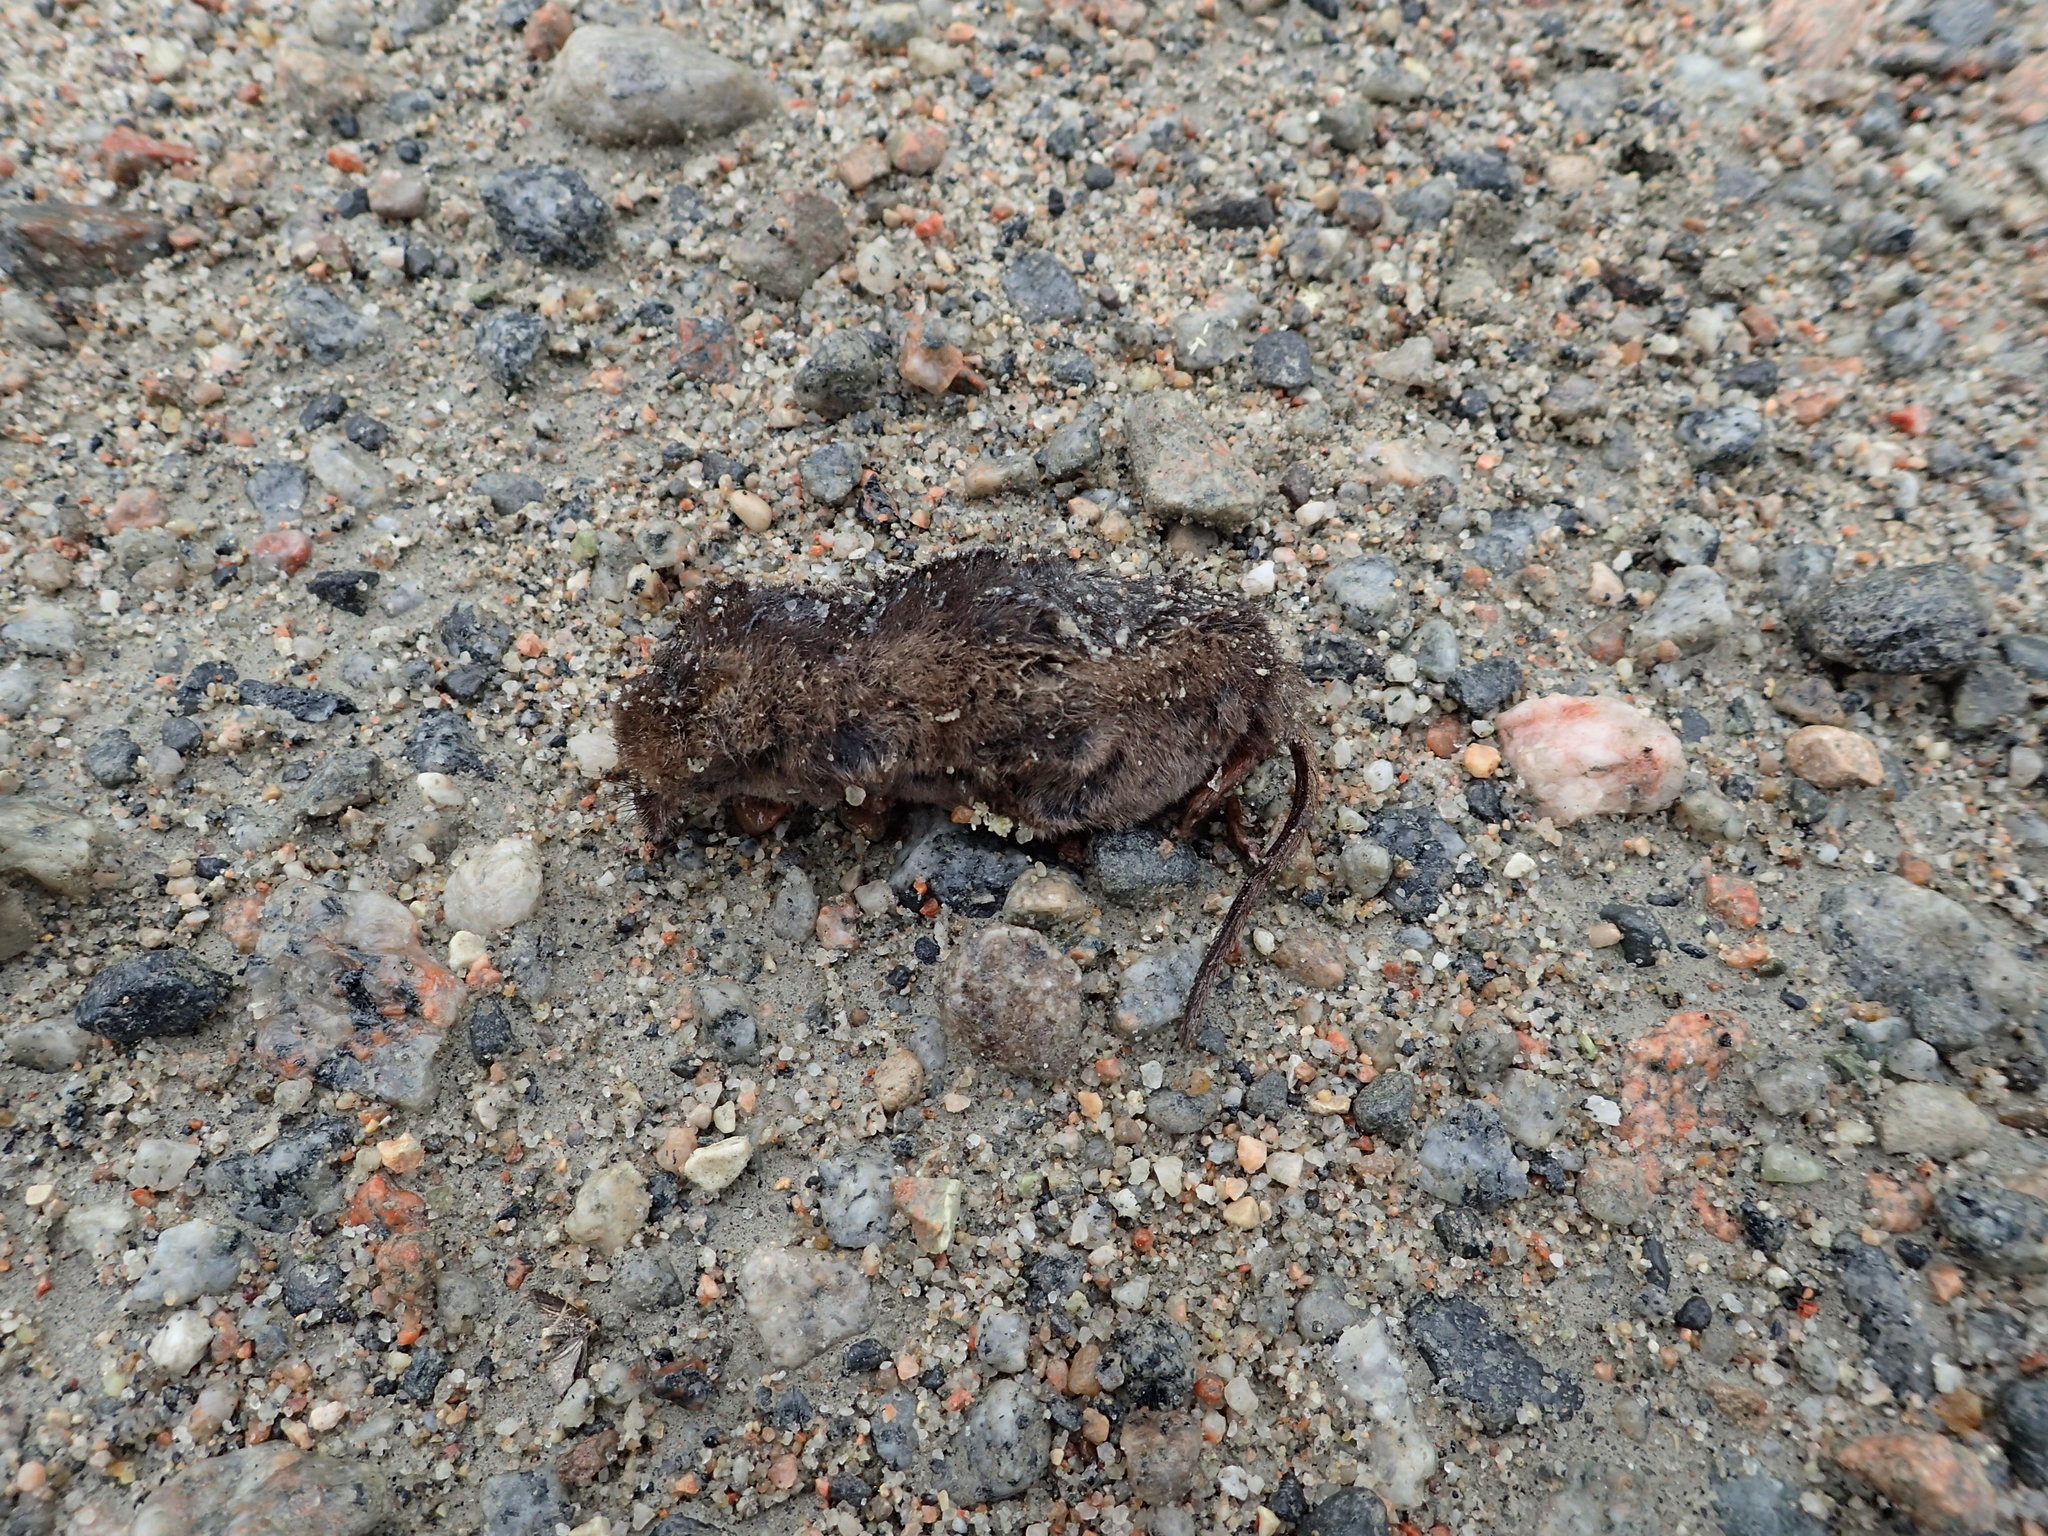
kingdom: Animalia
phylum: Chordata
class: Mammalia
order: Soricomorpha
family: Soricidae
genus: Sorex
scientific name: Sorex arcticus
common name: Arctic shrew
